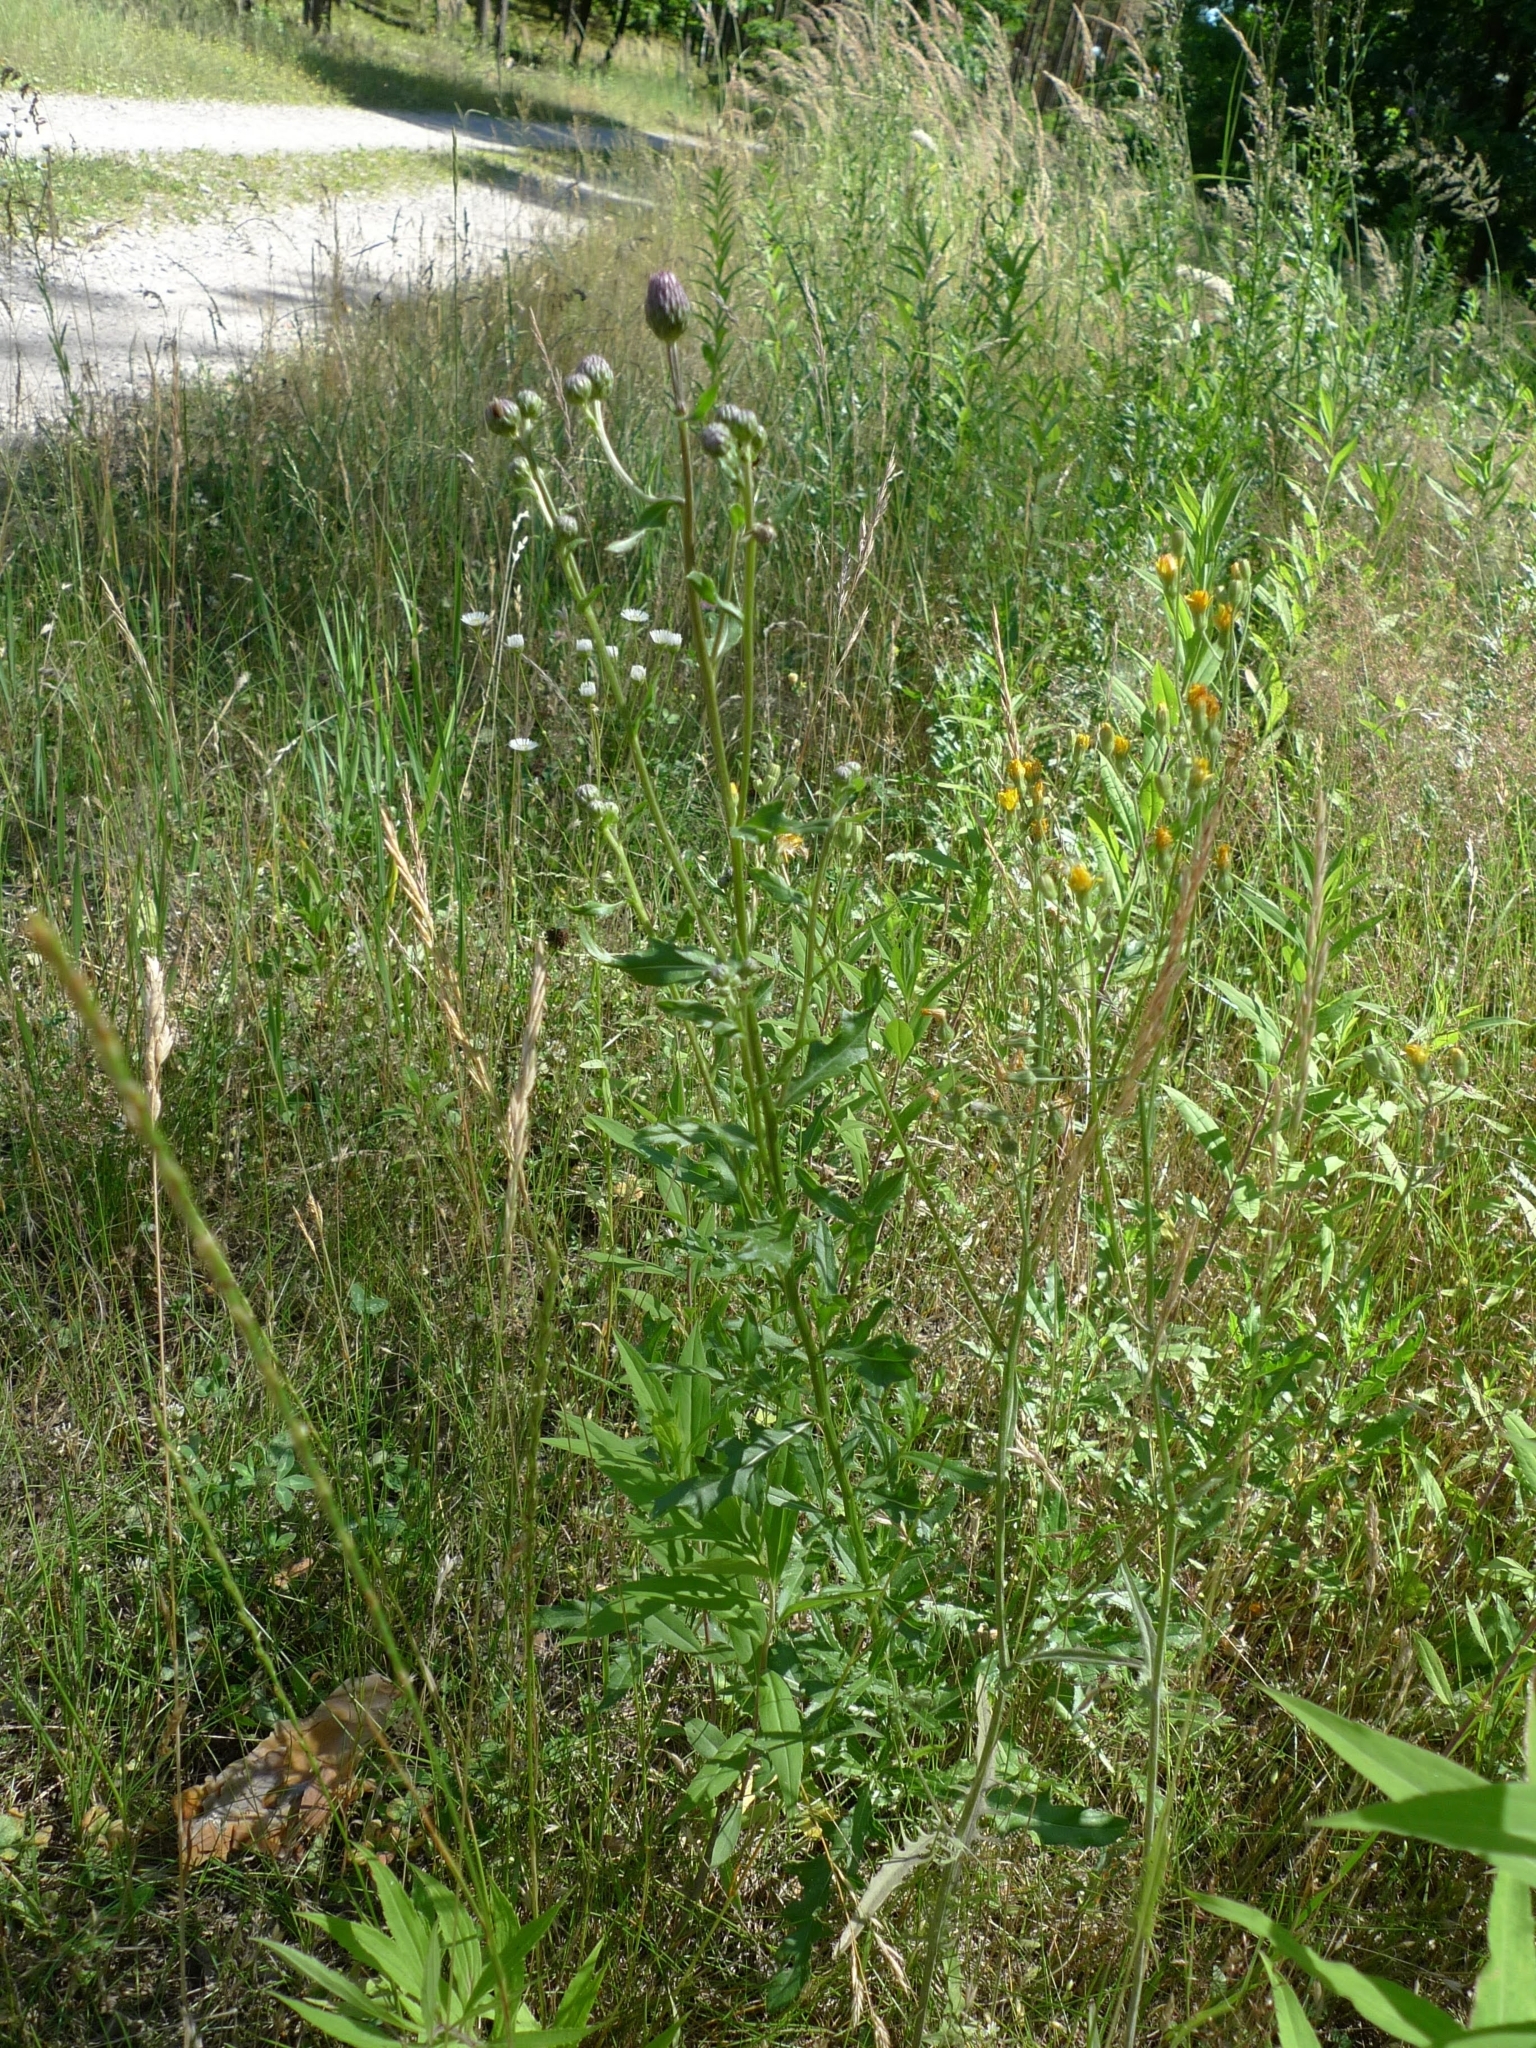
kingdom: Plantae
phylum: Tracheophyta
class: Magnoliopsida
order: Asterales
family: Asteraceae
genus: Cirsium
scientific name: Cirsium arvense
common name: Creeping thistle
